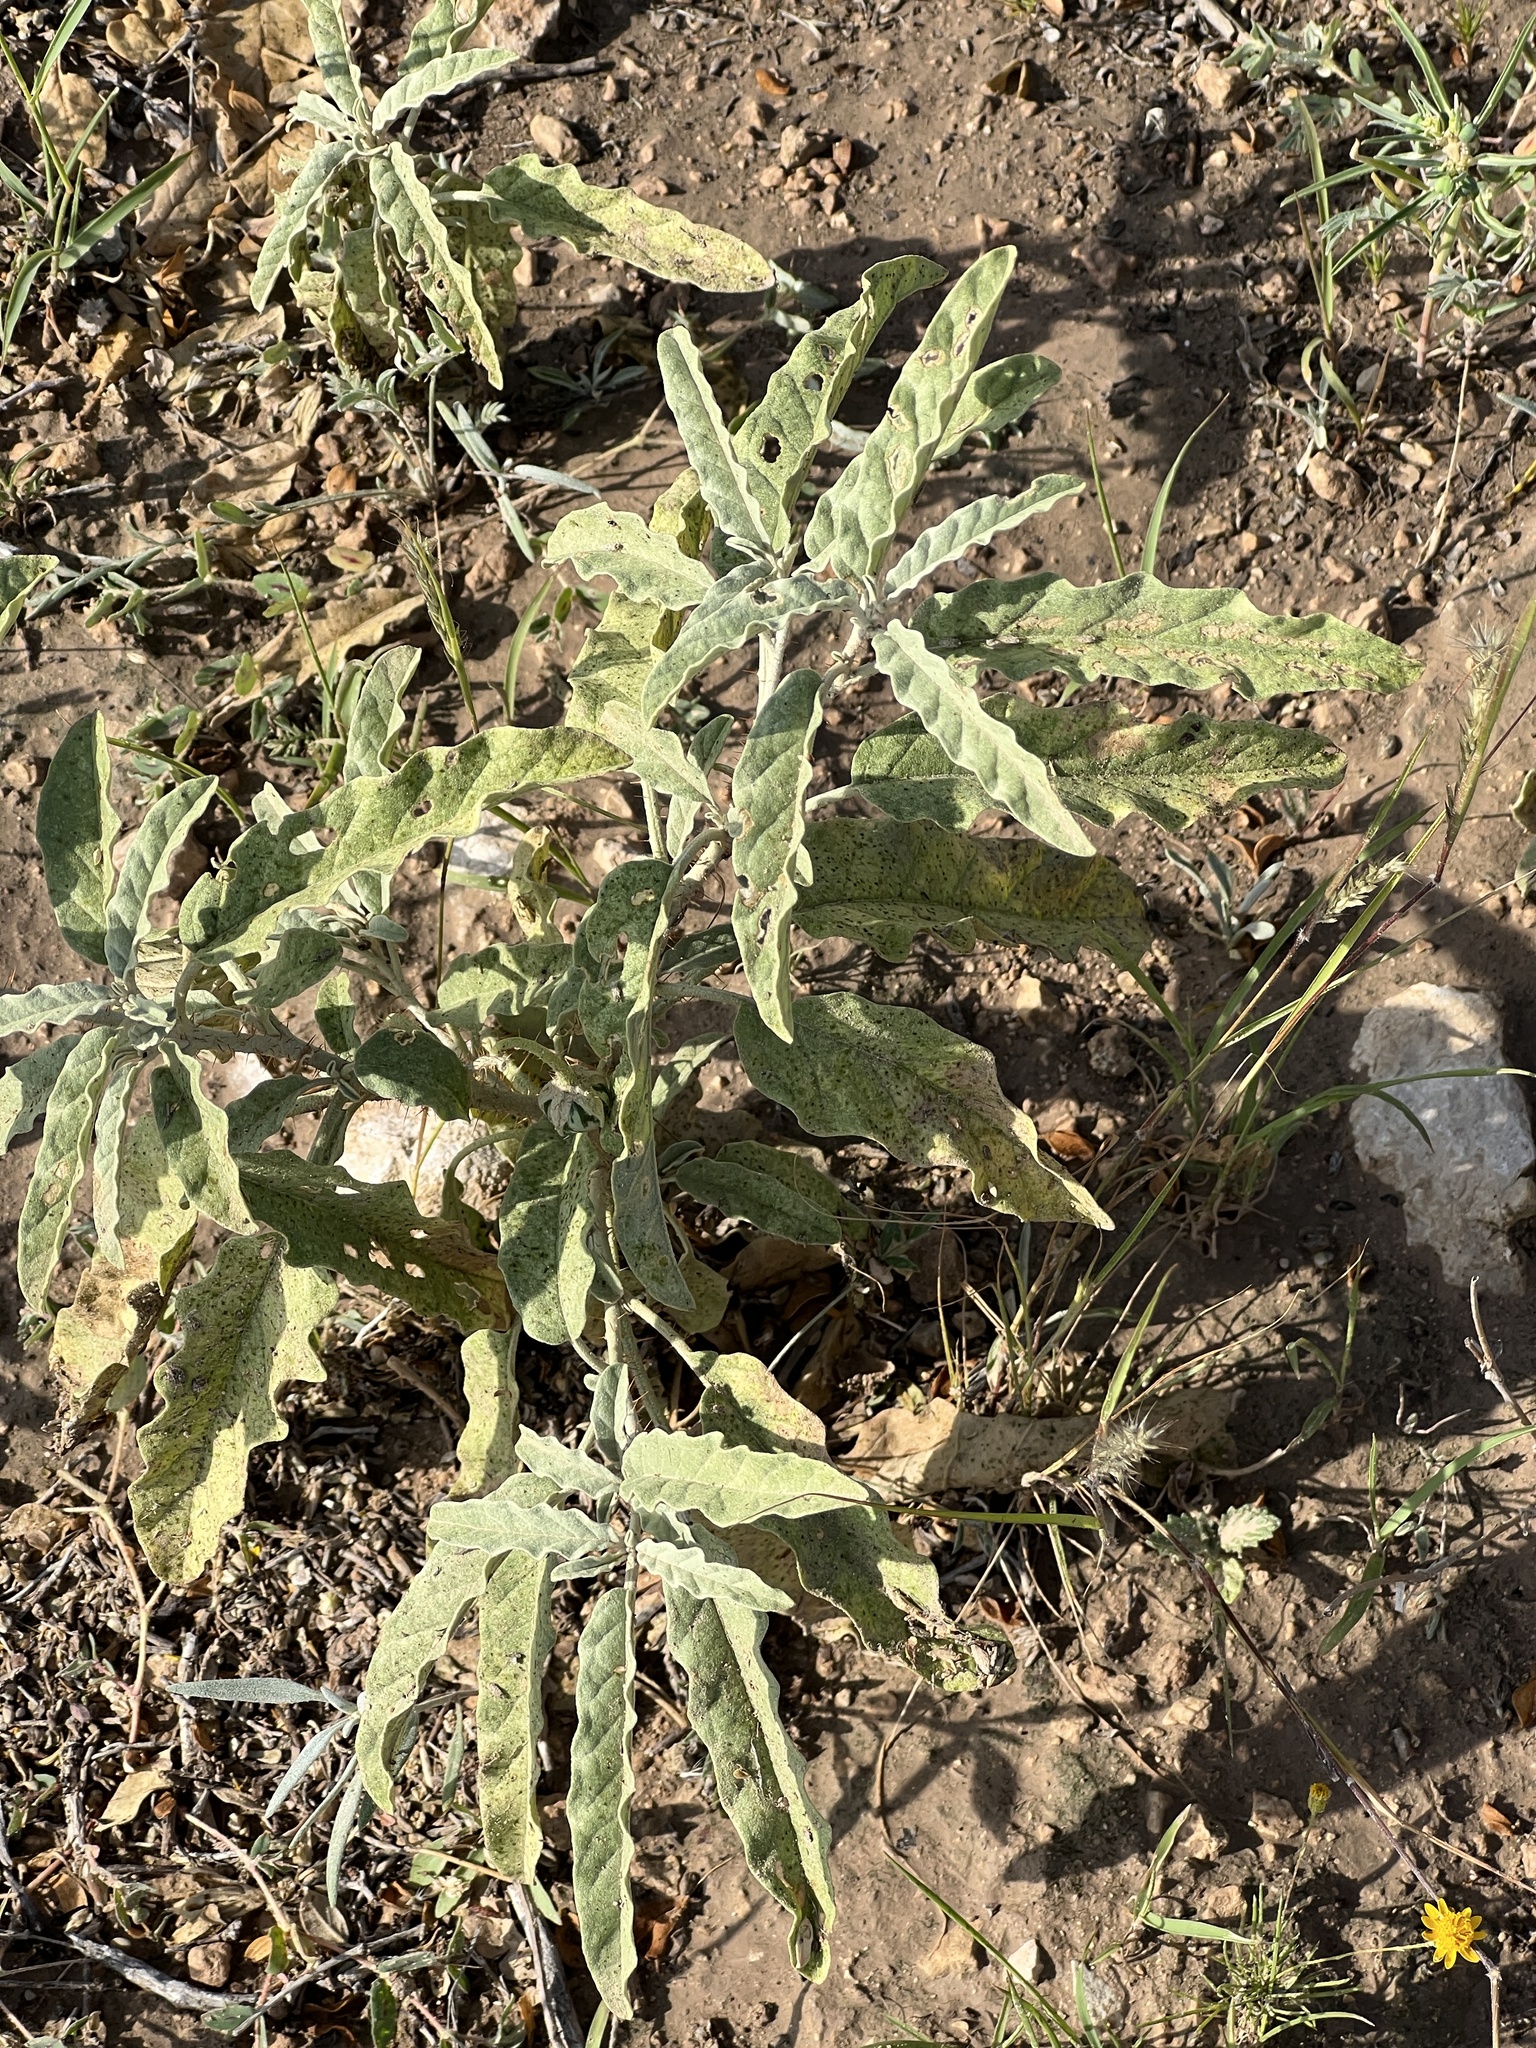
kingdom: Plantae
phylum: Tracheophyta
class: Magnoliopsida
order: Solanales
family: Solanaceae
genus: Solanum
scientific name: Solanum elaeagnifolium
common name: Silverleaf nightshade
